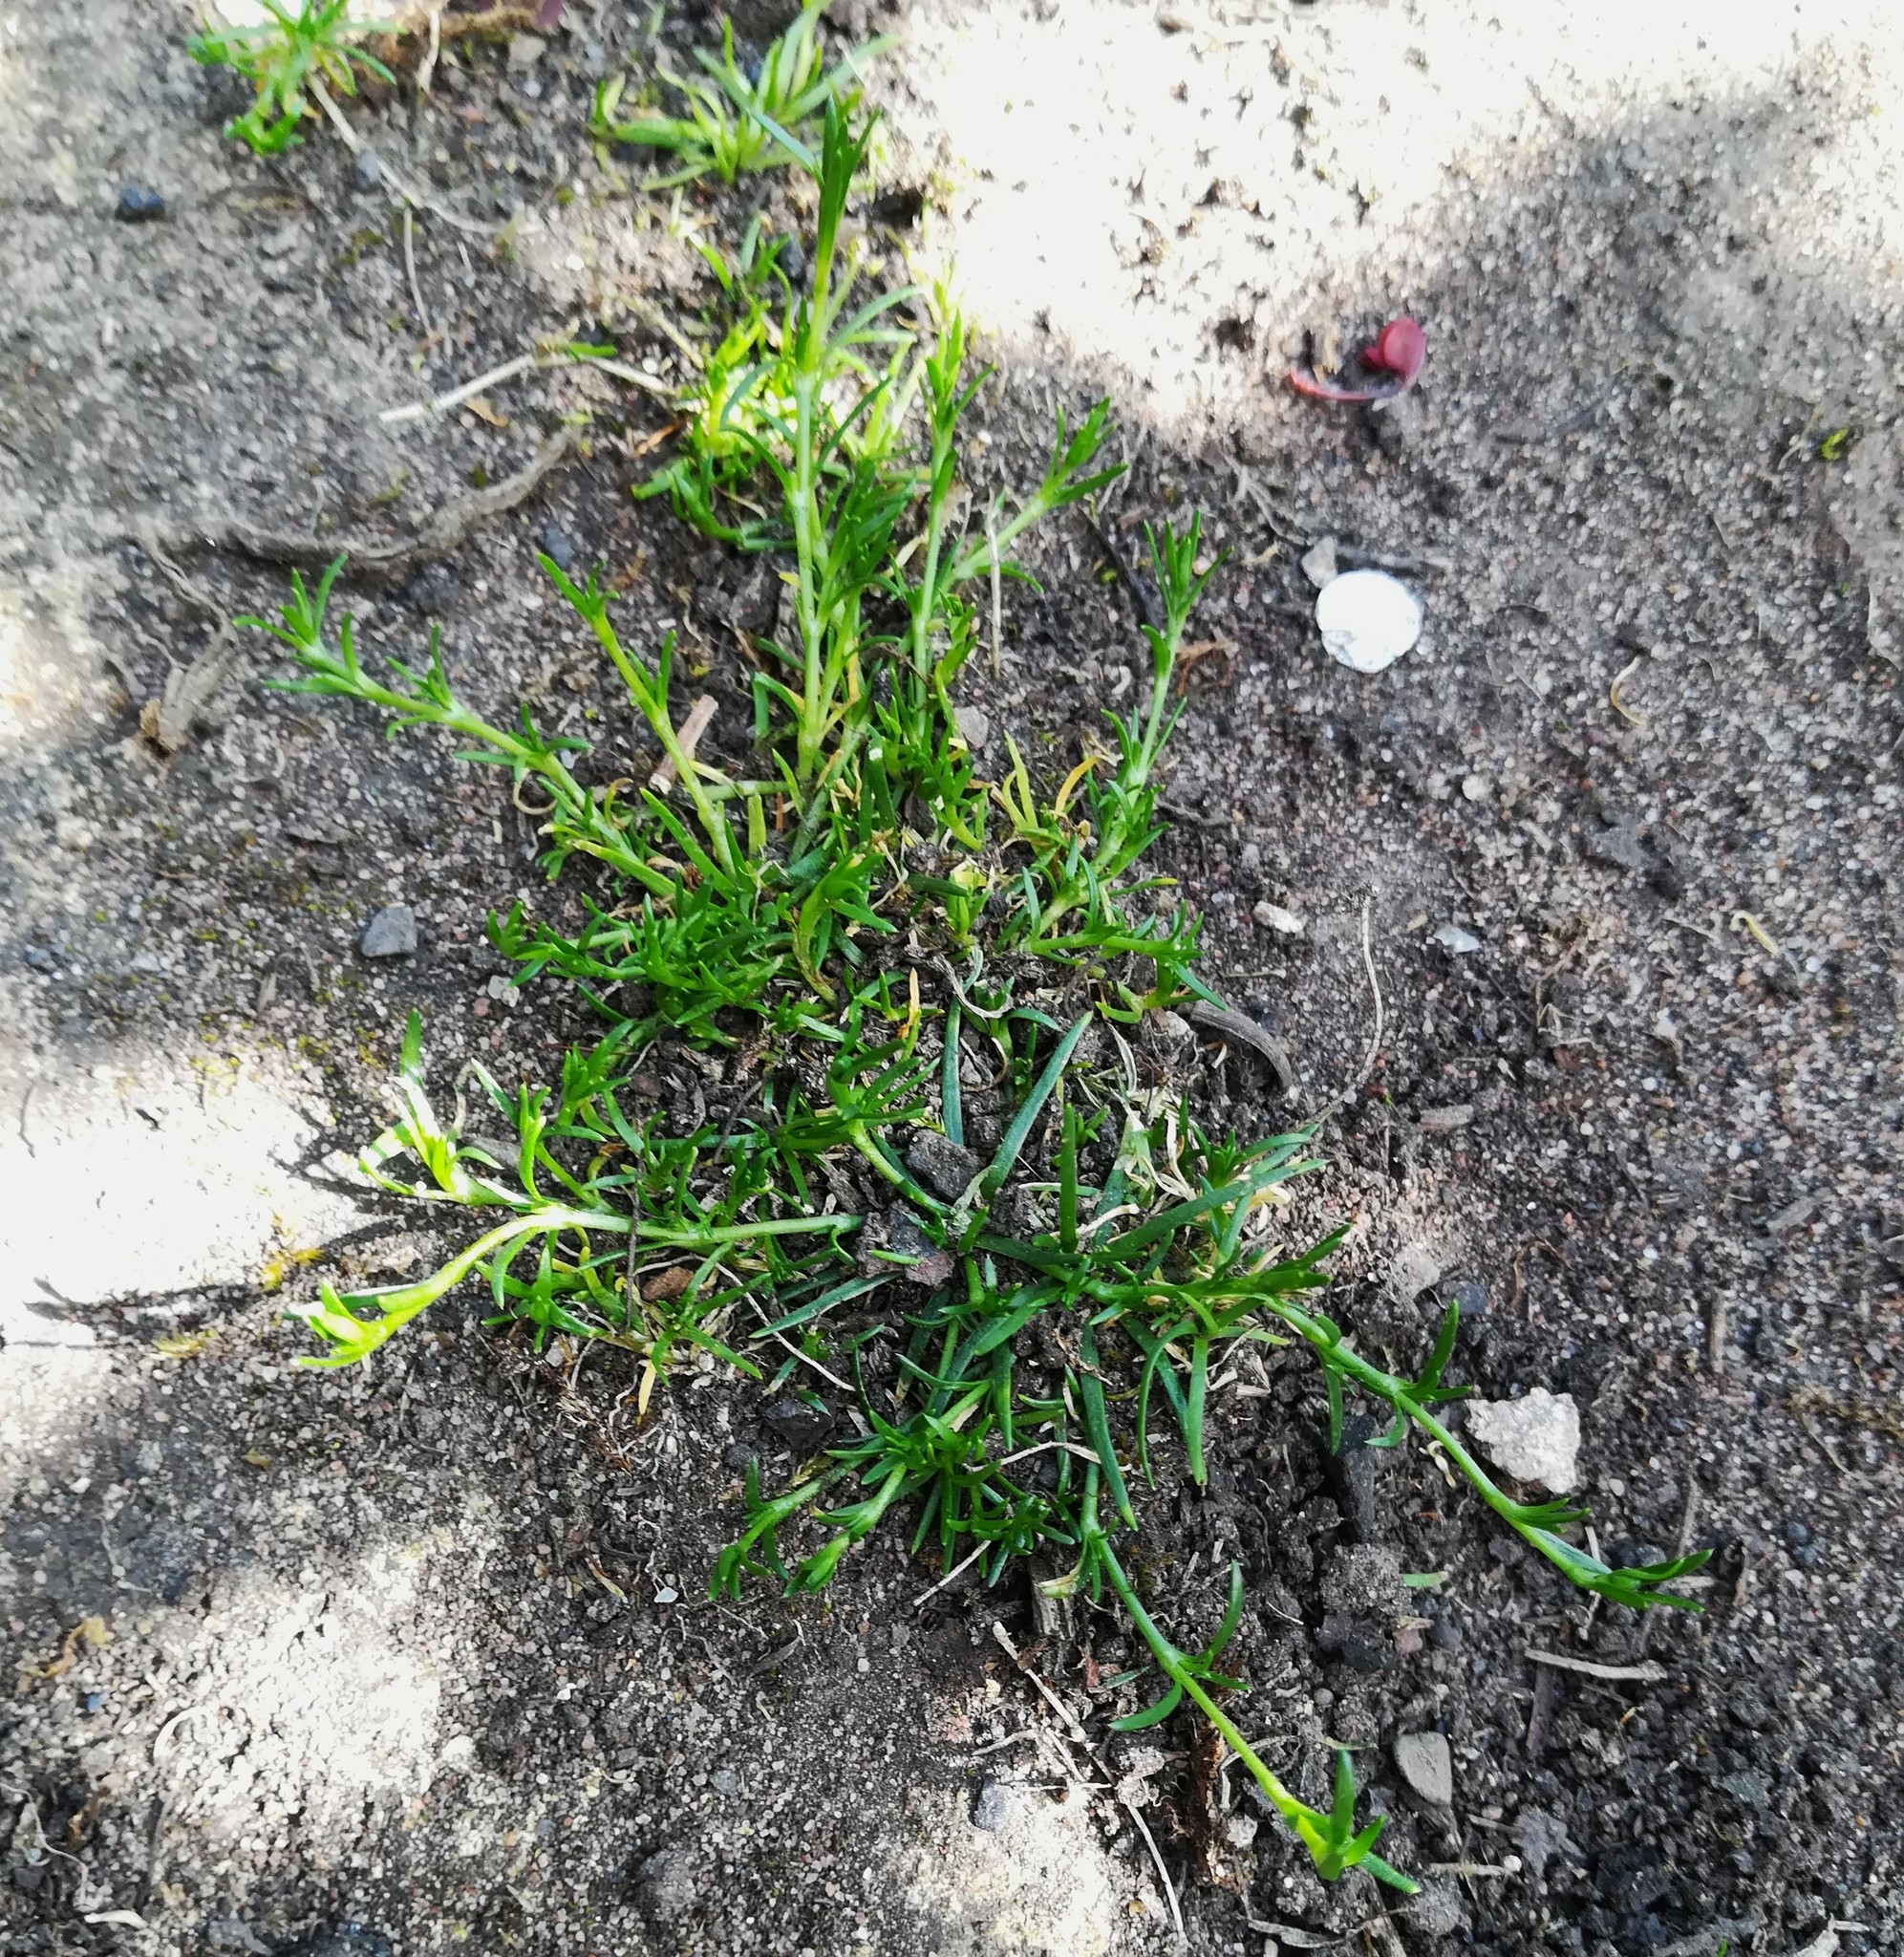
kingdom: Plantae
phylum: Tracheophyta
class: Magnoliopsida
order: Caryophyllales
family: Caryophyllaceae
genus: Sagina
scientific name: Sagina procumbens
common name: Procumbent pearlwort
